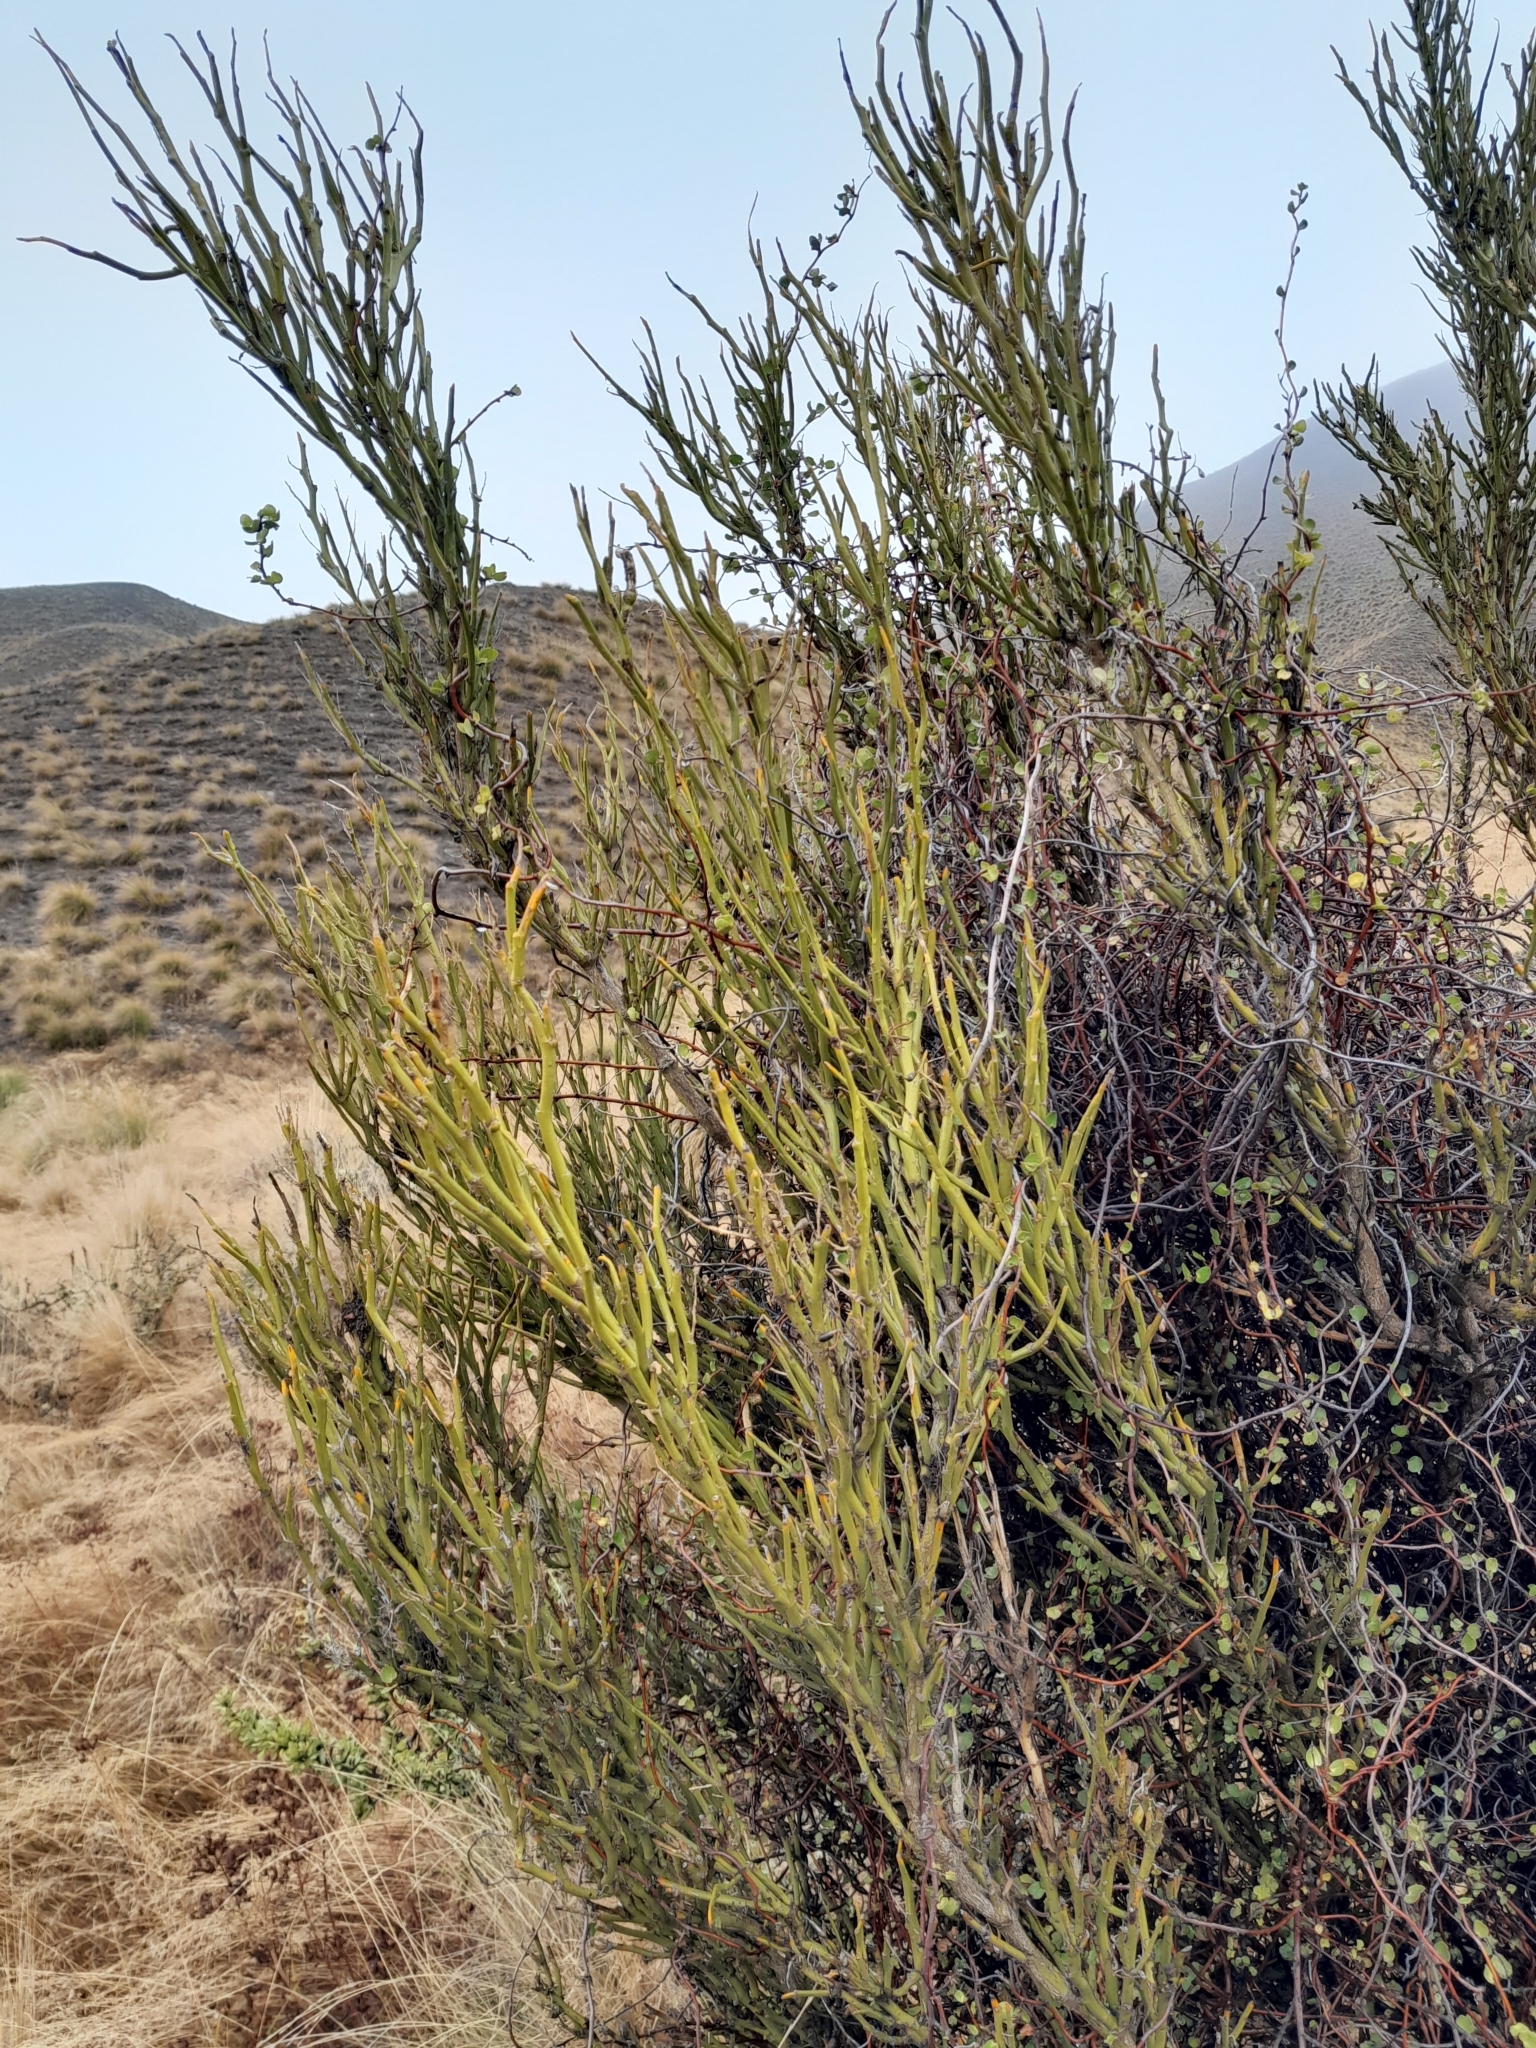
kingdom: Plantae
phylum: Tracheophyta
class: Magnoliopsida
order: Fabales
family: Fabaceae
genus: Carmichaelia
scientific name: Carmichaelia petriei
